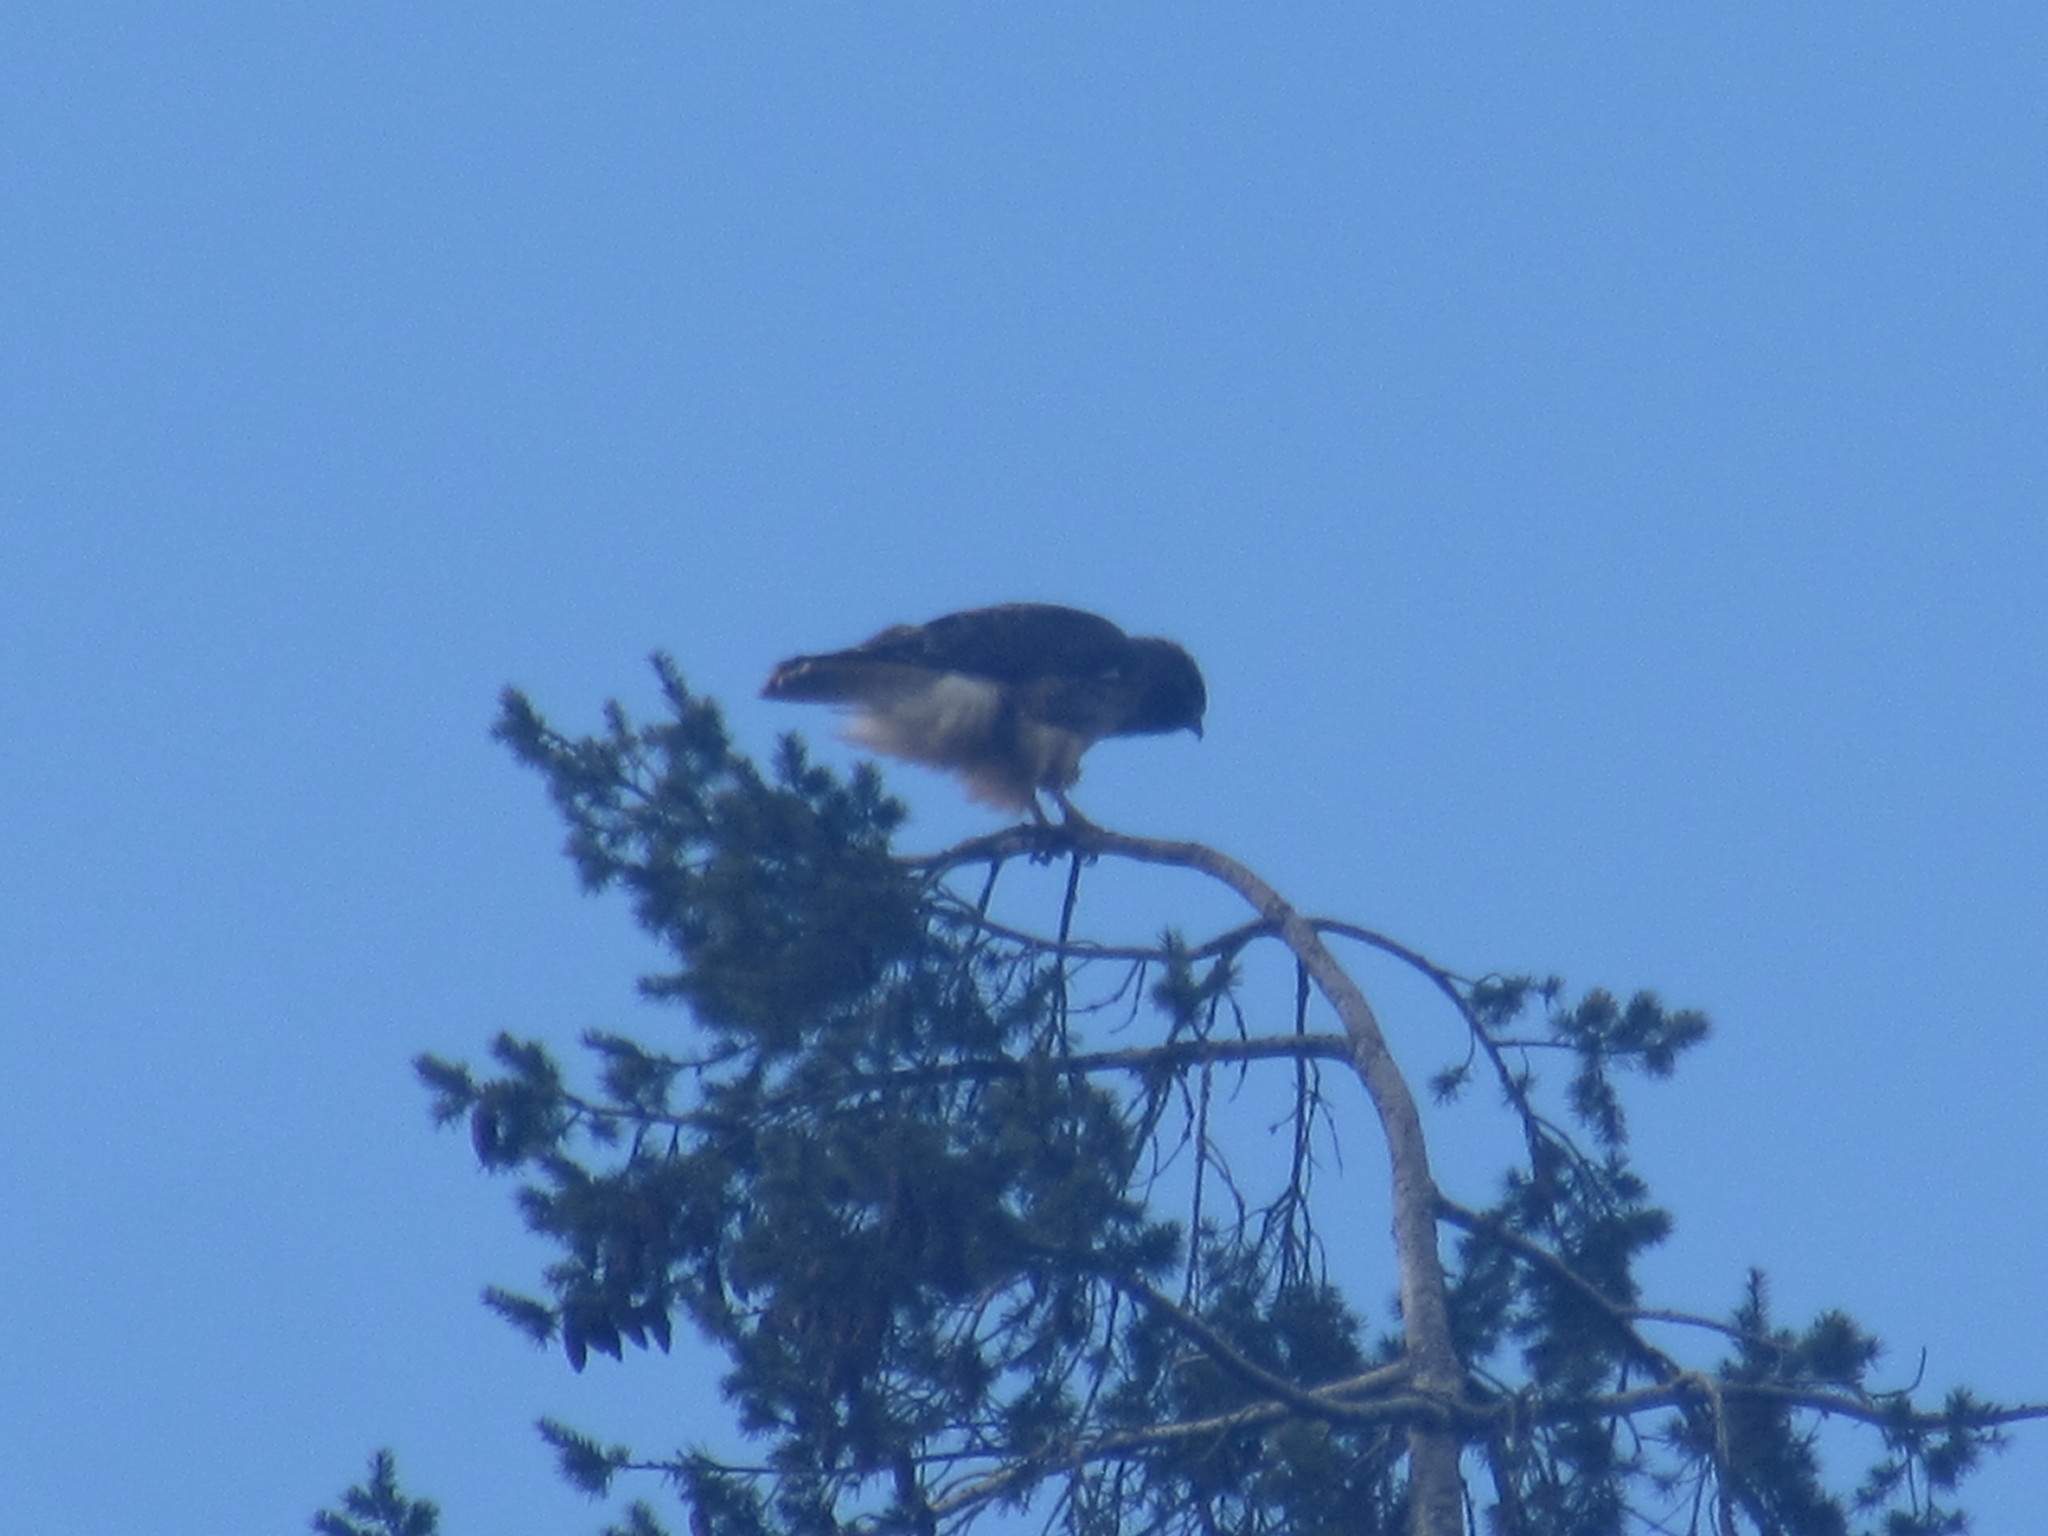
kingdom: Animalia
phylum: Chordata
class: Aves
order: Accipitriformes
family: Accipitridae
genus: Buteo
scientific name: Buteo jamaicensis
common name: Red-tailed hawk
